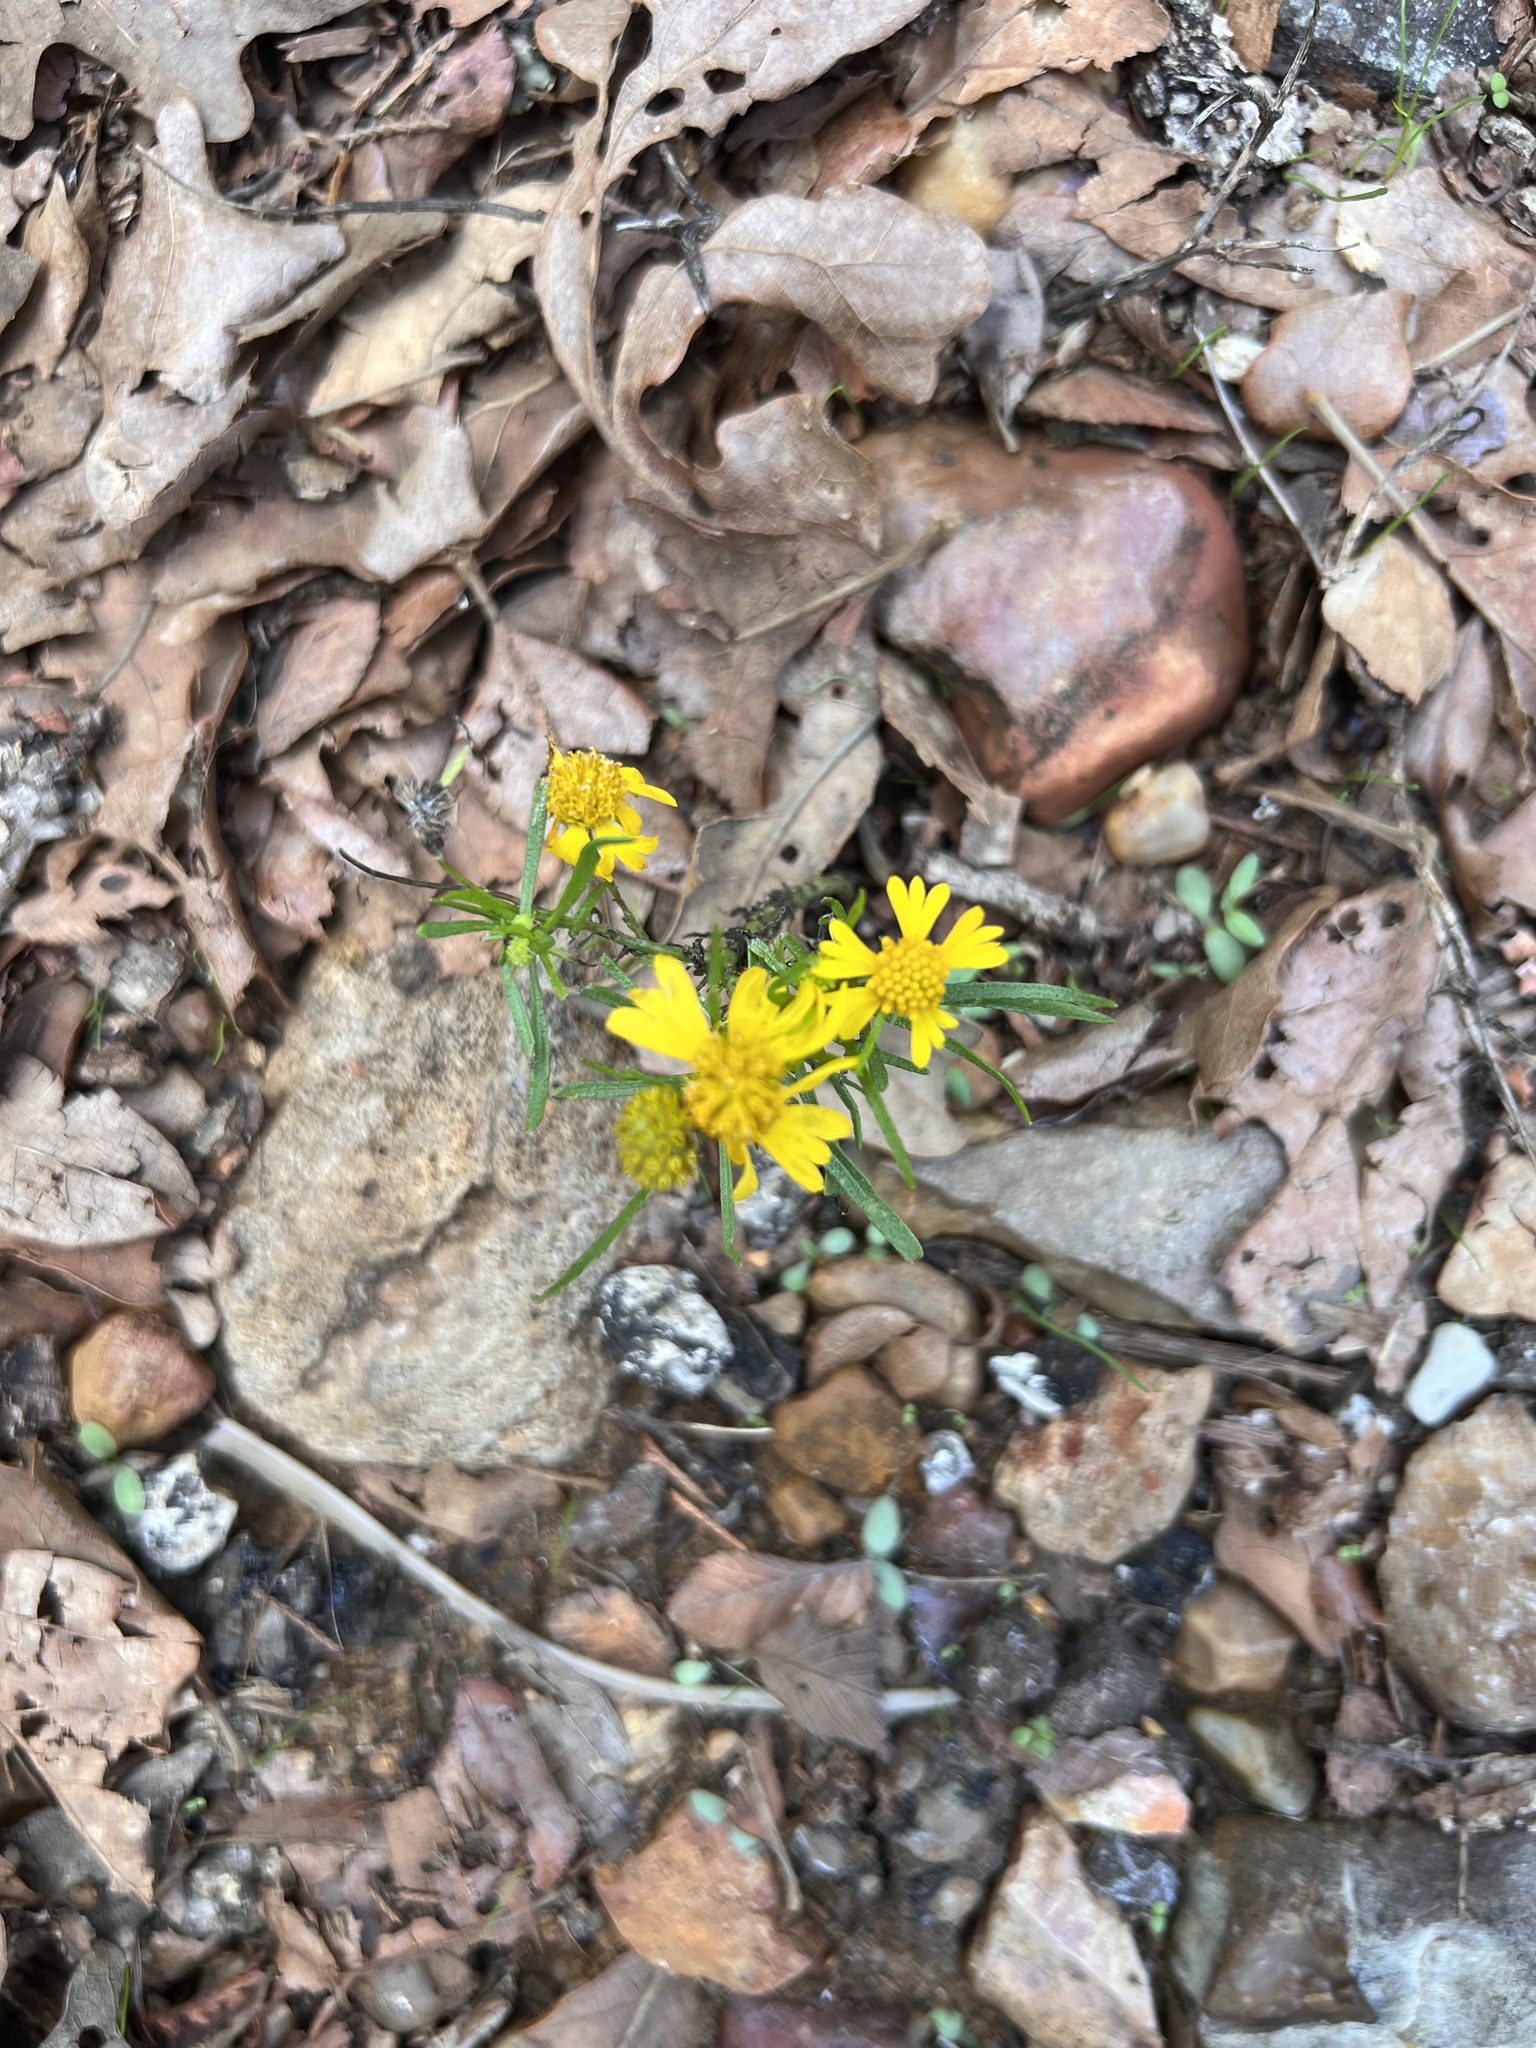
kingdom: Plantae
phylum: Tracheophyta
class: Magnoliopsida
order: Asterales
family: Asteraceae
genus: Helenium
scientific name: Helenium amarum
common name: Bitter sneezeweed
